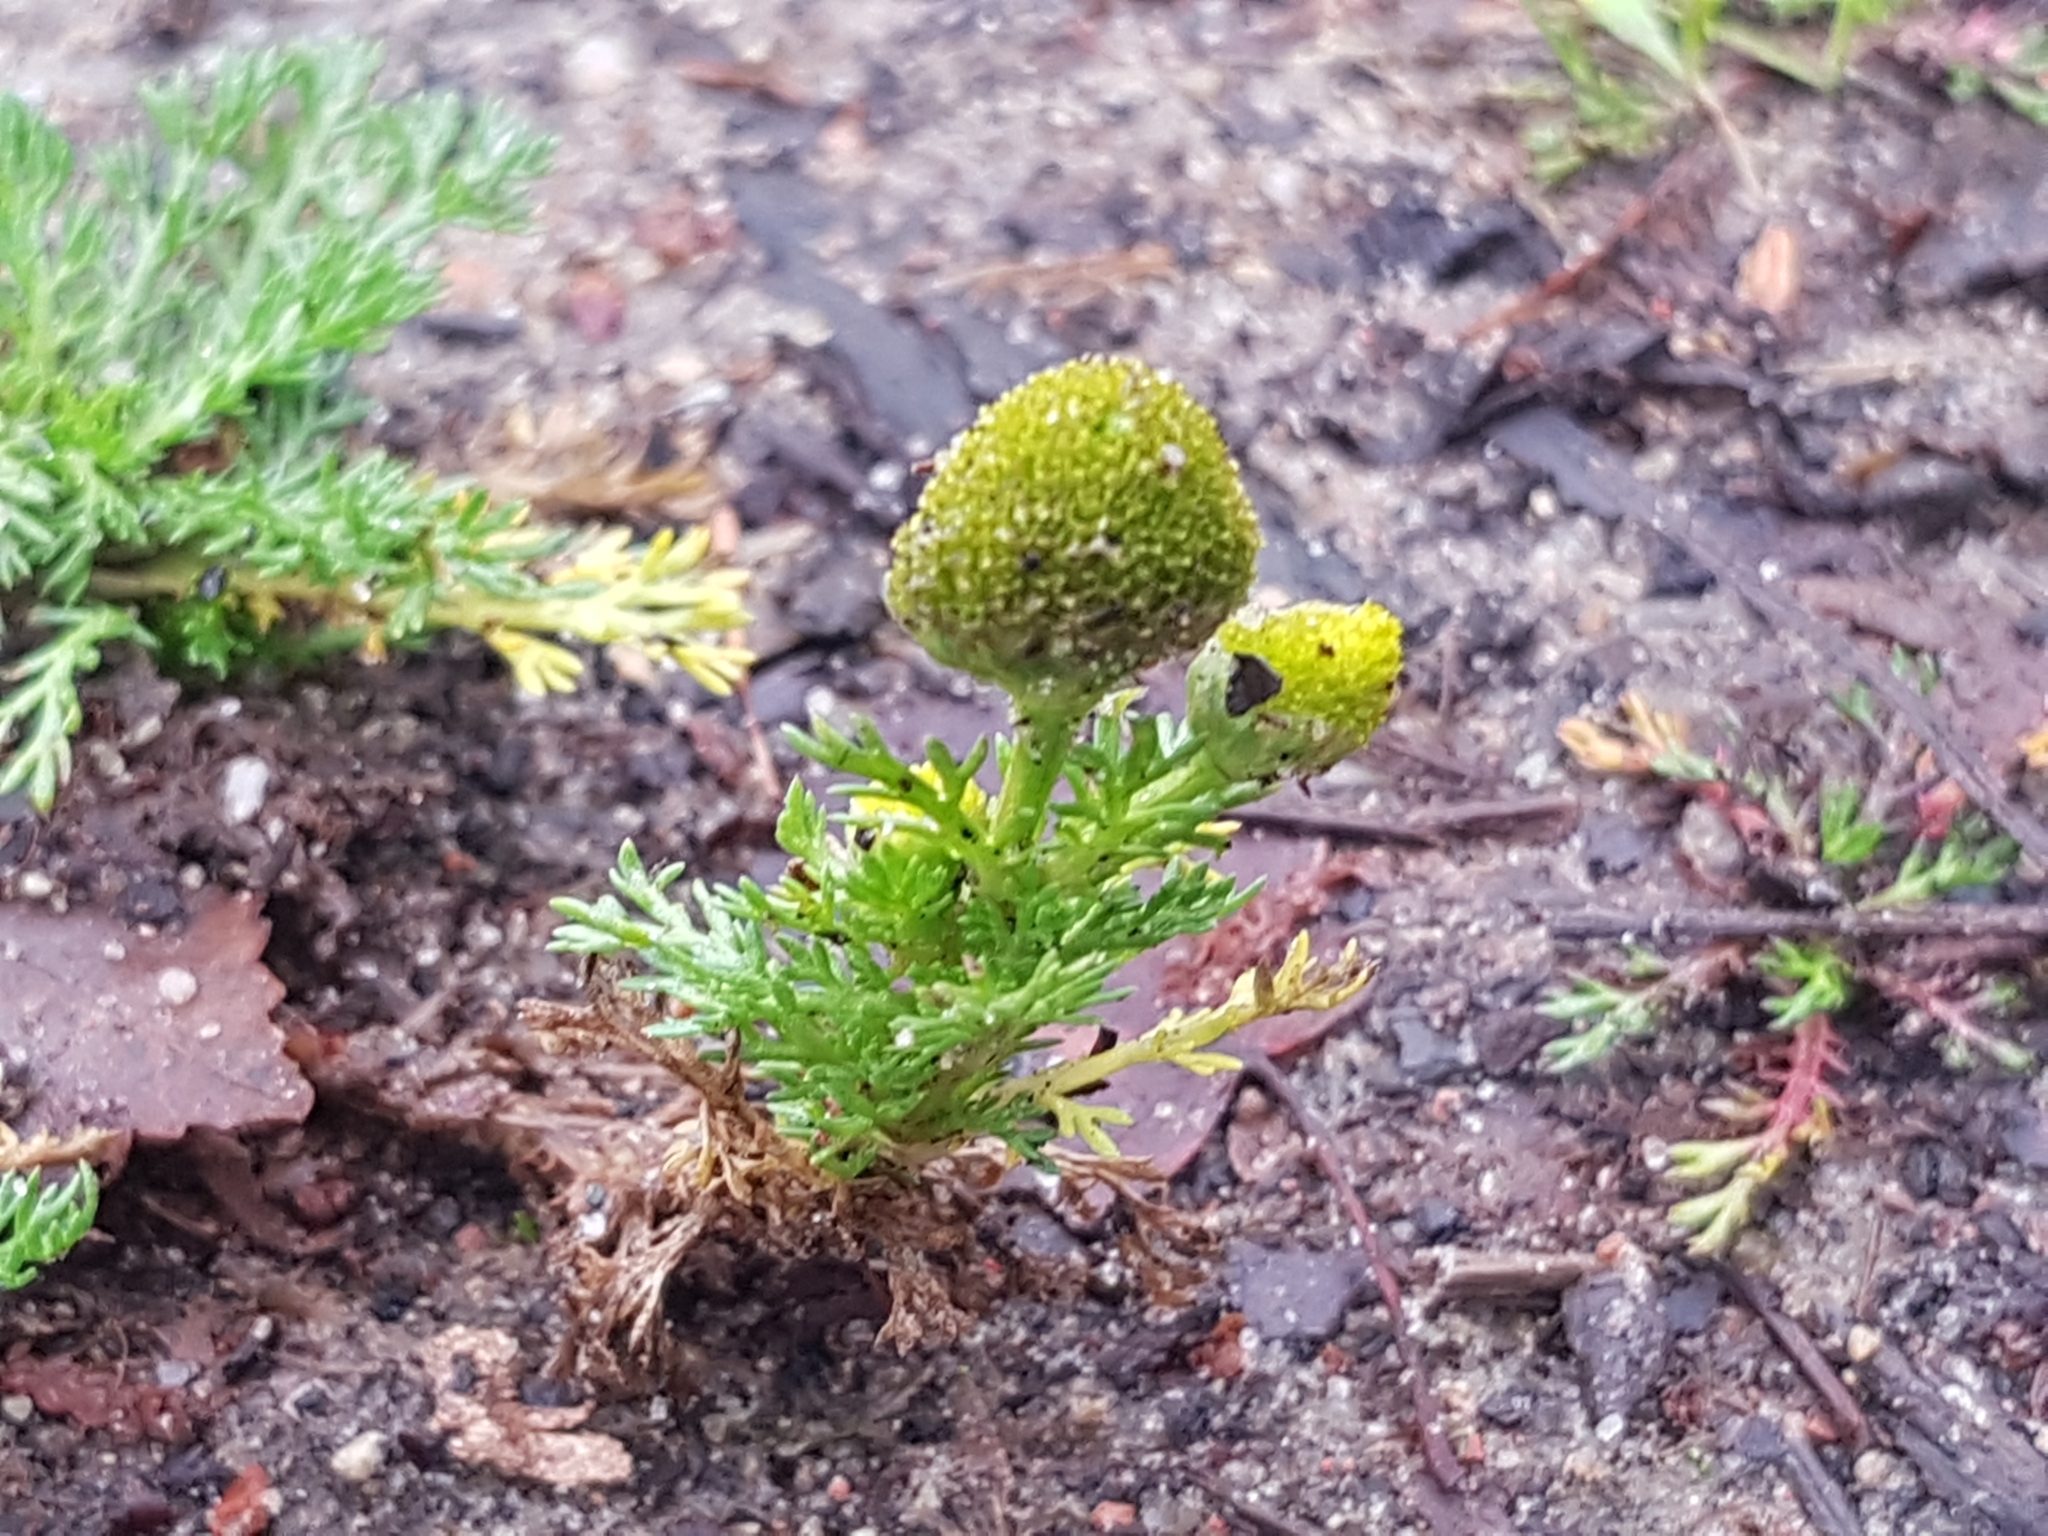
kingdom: Plantae
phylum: Tracheophyta
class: Magnoliopsida
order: Asterales
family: Asteraceae
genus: Matricaria
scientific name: Matricaria discoidea
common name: Disc mayweed
